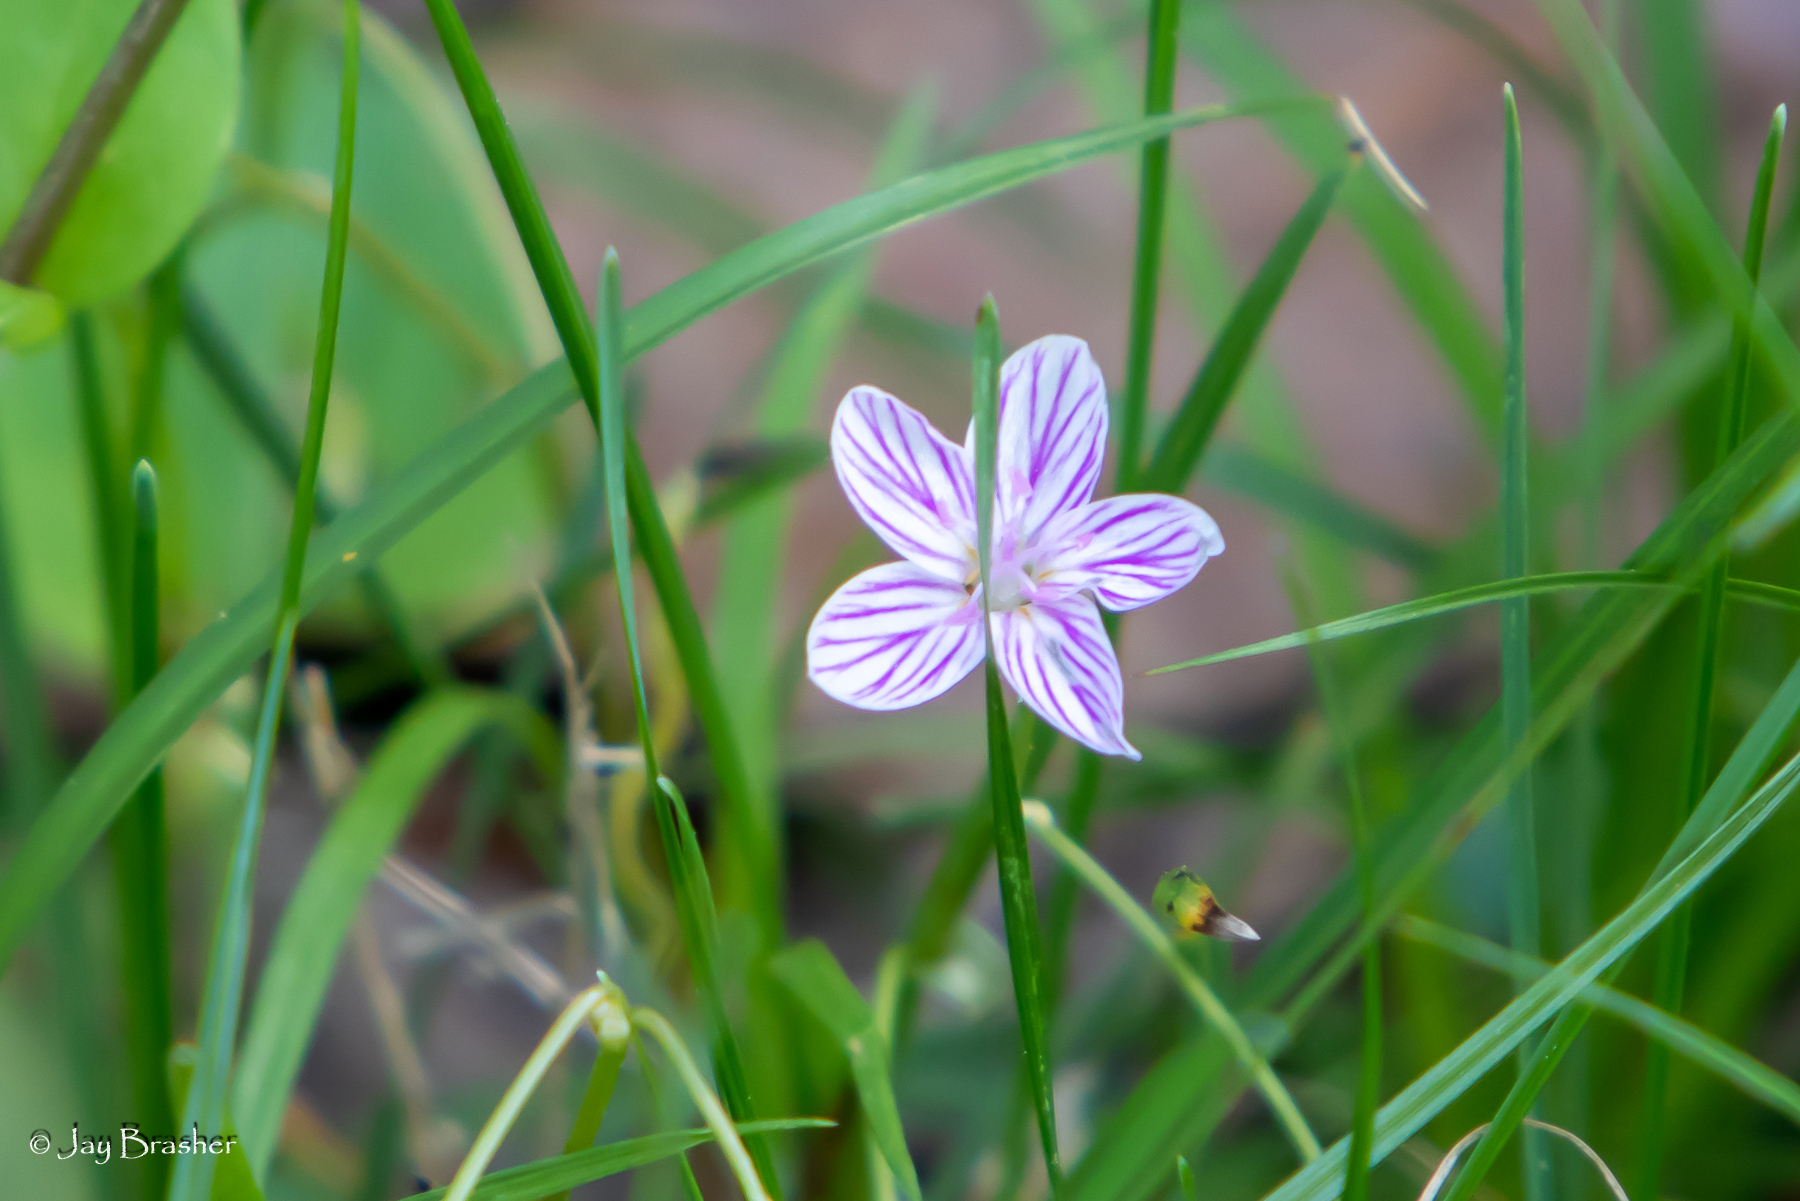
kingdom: Plantae
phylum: Tracheophyta
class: Magnoliopsida
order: Caryophyllales
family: Montiaceae
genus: Claytonia
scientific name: Claytonia virginica
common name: Virginia springbeauty
